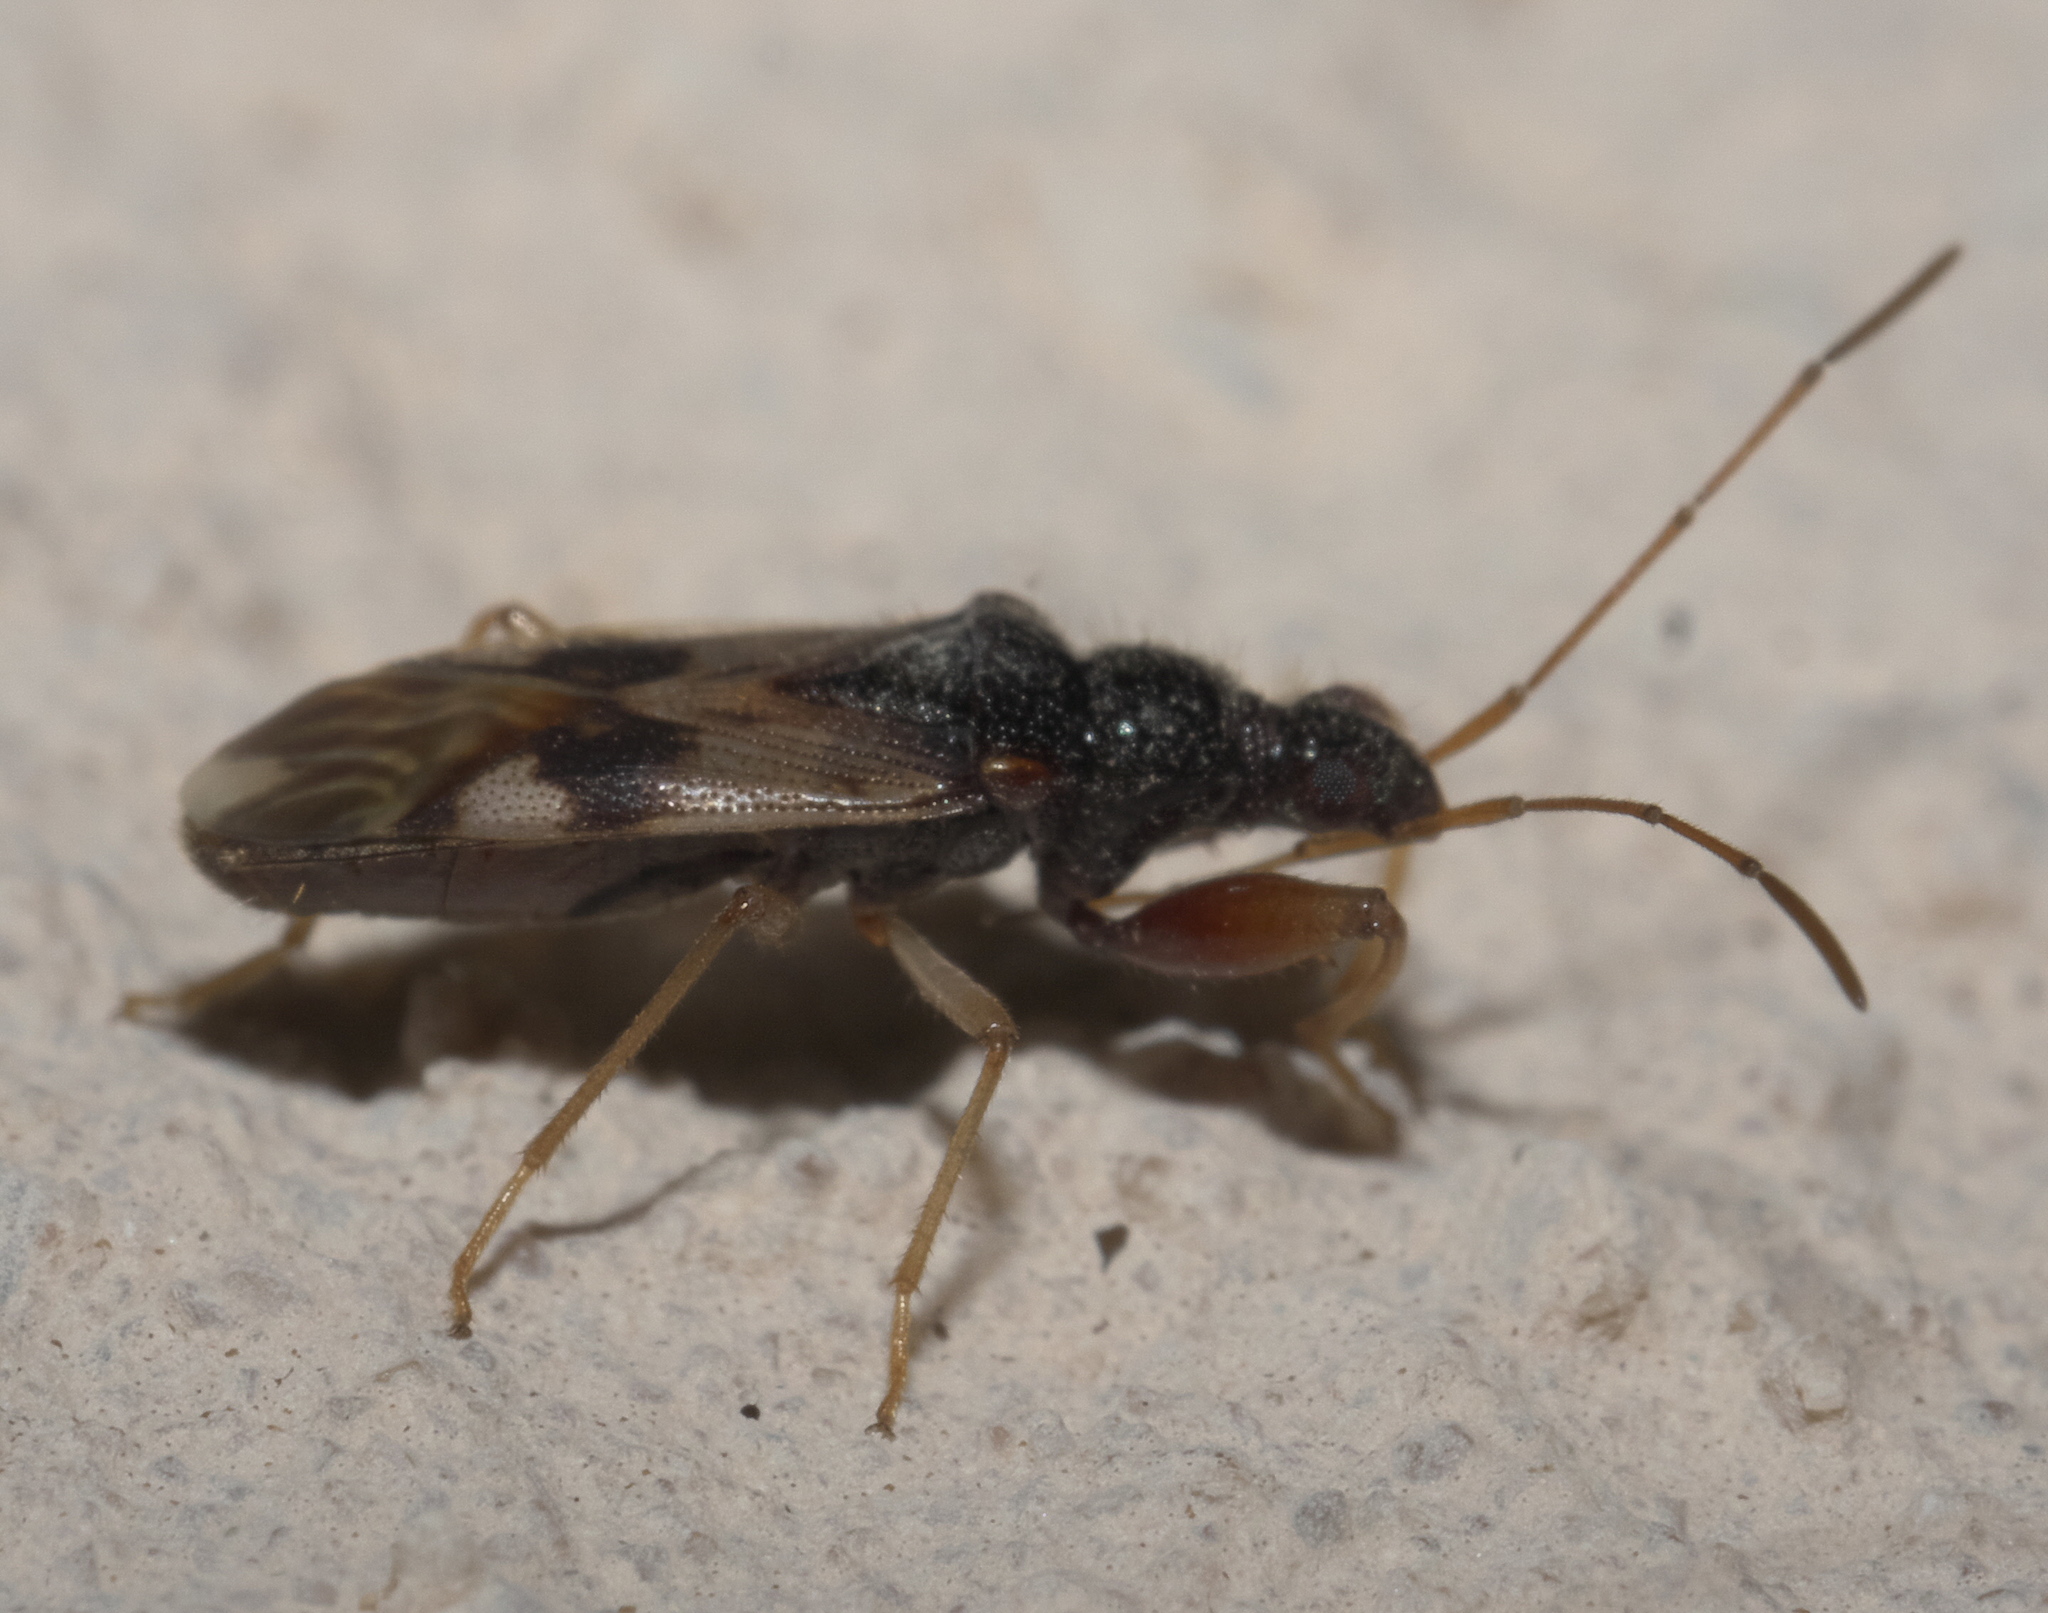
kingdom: Animalia
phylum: Arthropoda
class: Insecta
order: Hemiptera
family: Rhyparochromidae
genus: Pseudopamera
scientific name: Pseudopamera nitidula
